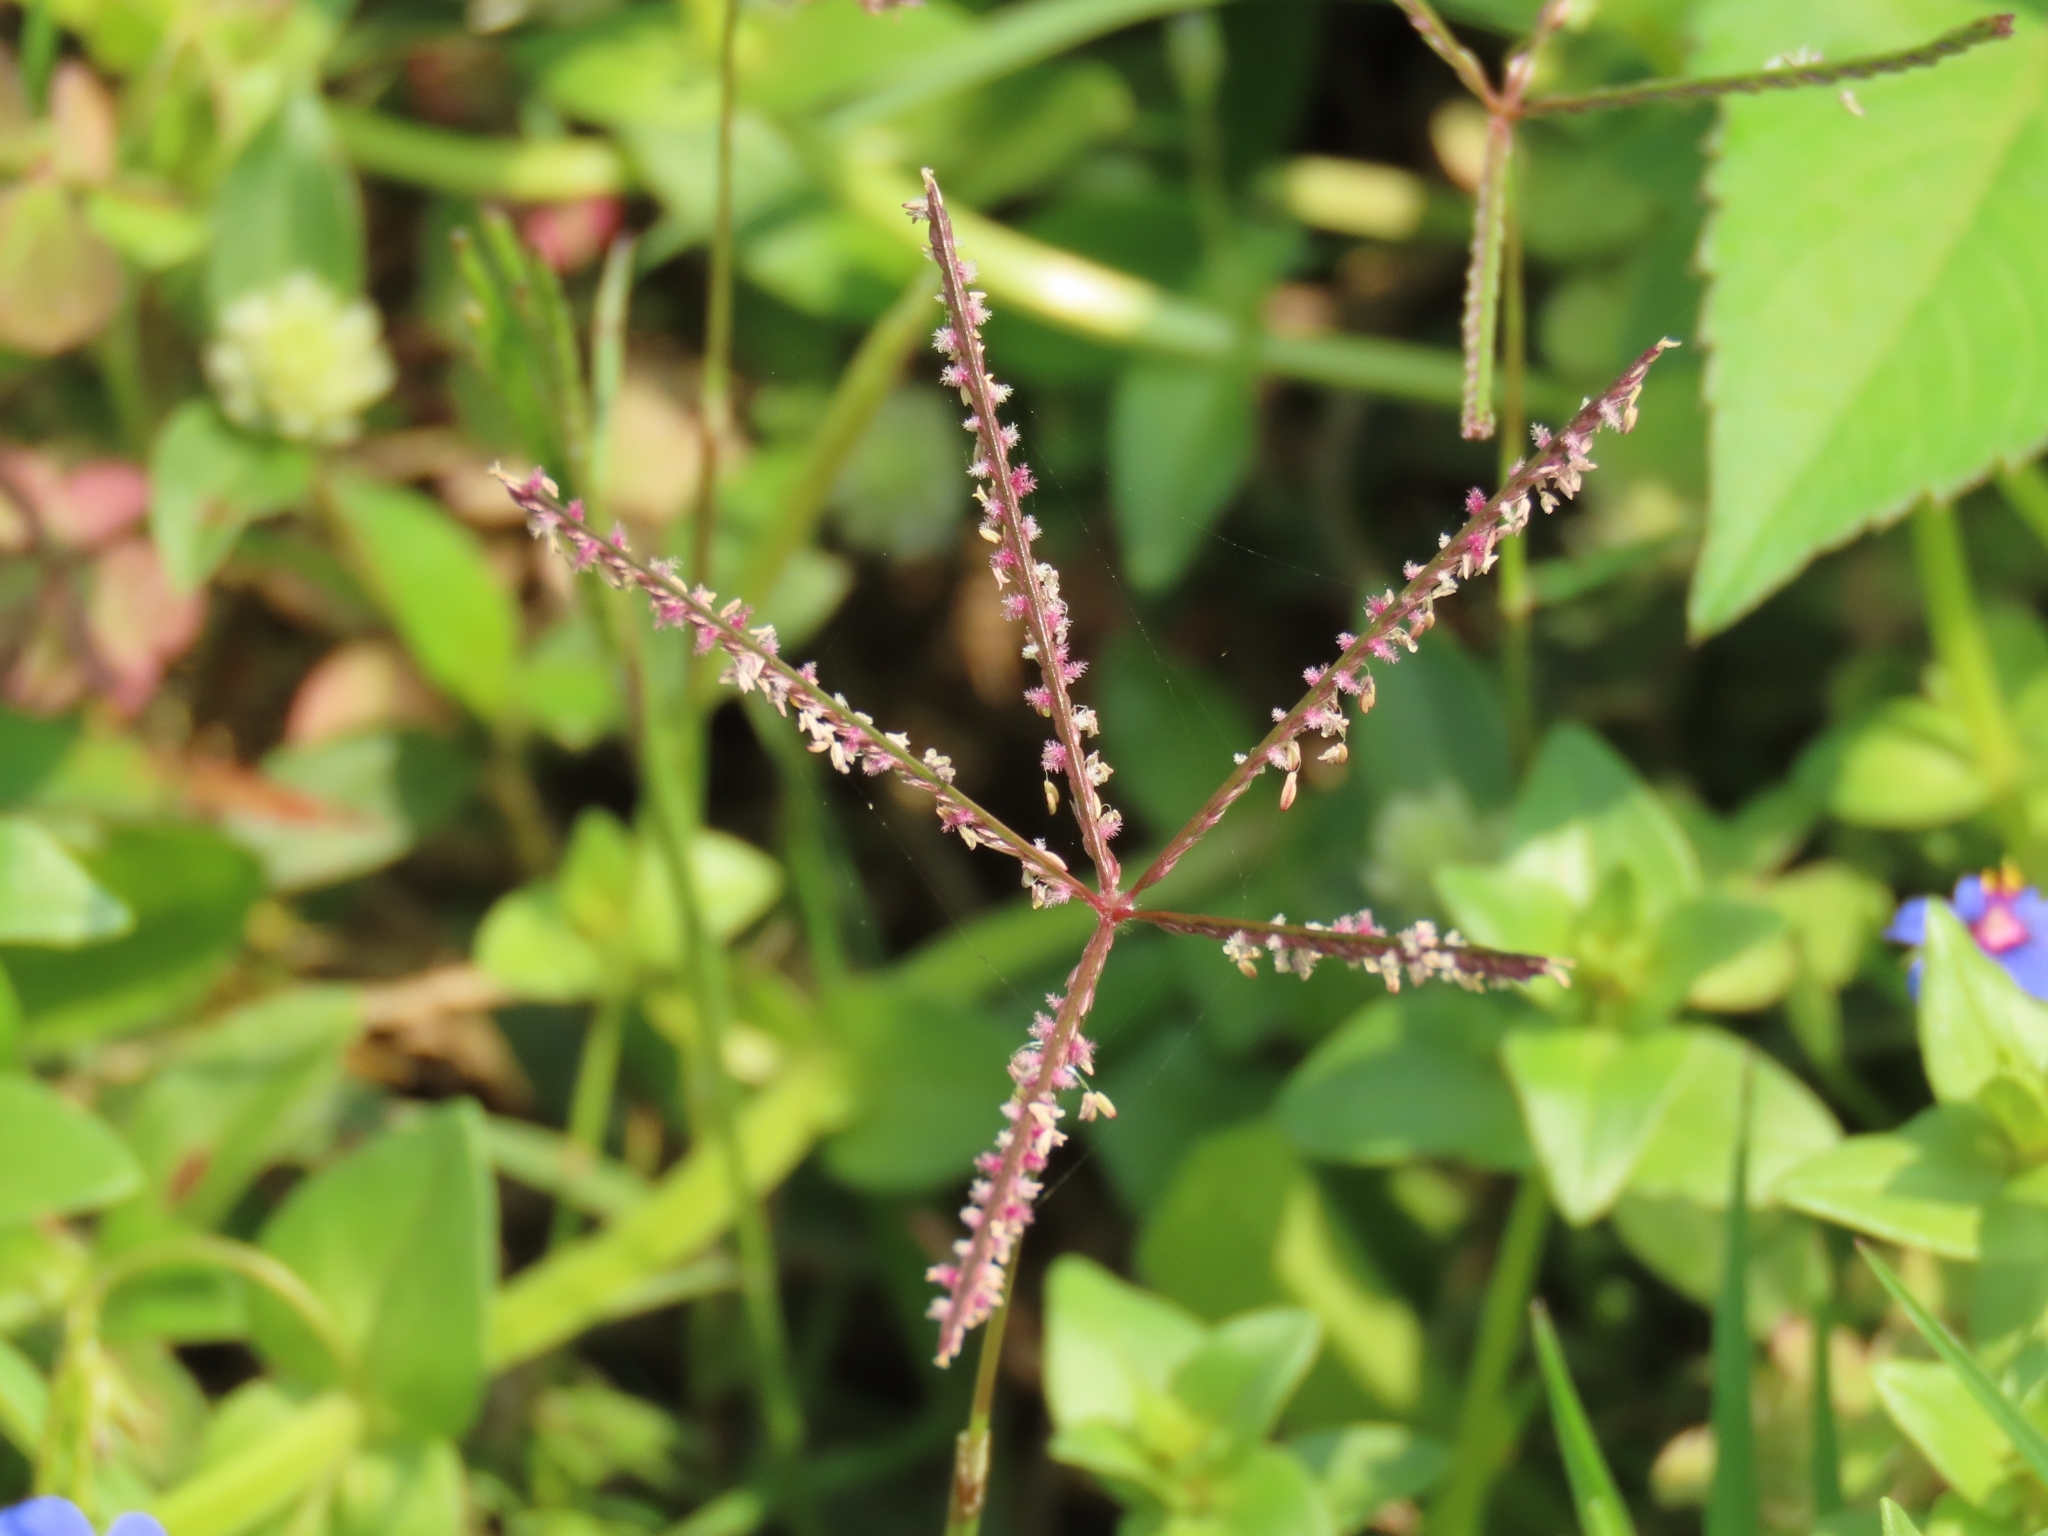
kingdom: Plantae
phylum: Tracheophyta
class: Liliopsida
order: Poales
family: Poaceae
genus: Cynodon
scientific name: Cynodon dactylon
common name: Bermuda grass
